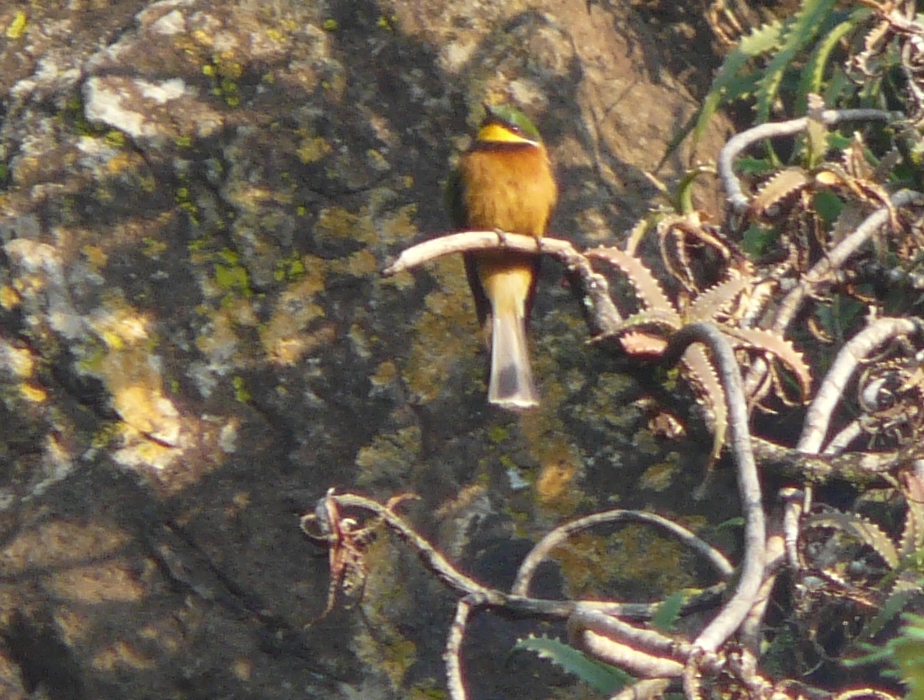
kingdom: Animalia
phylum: Chordata
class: Aves
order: Coraciiformes
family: Meropidae
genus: Merops
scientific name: Merops oreobates
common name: Cinnamon-chested bee-eater
